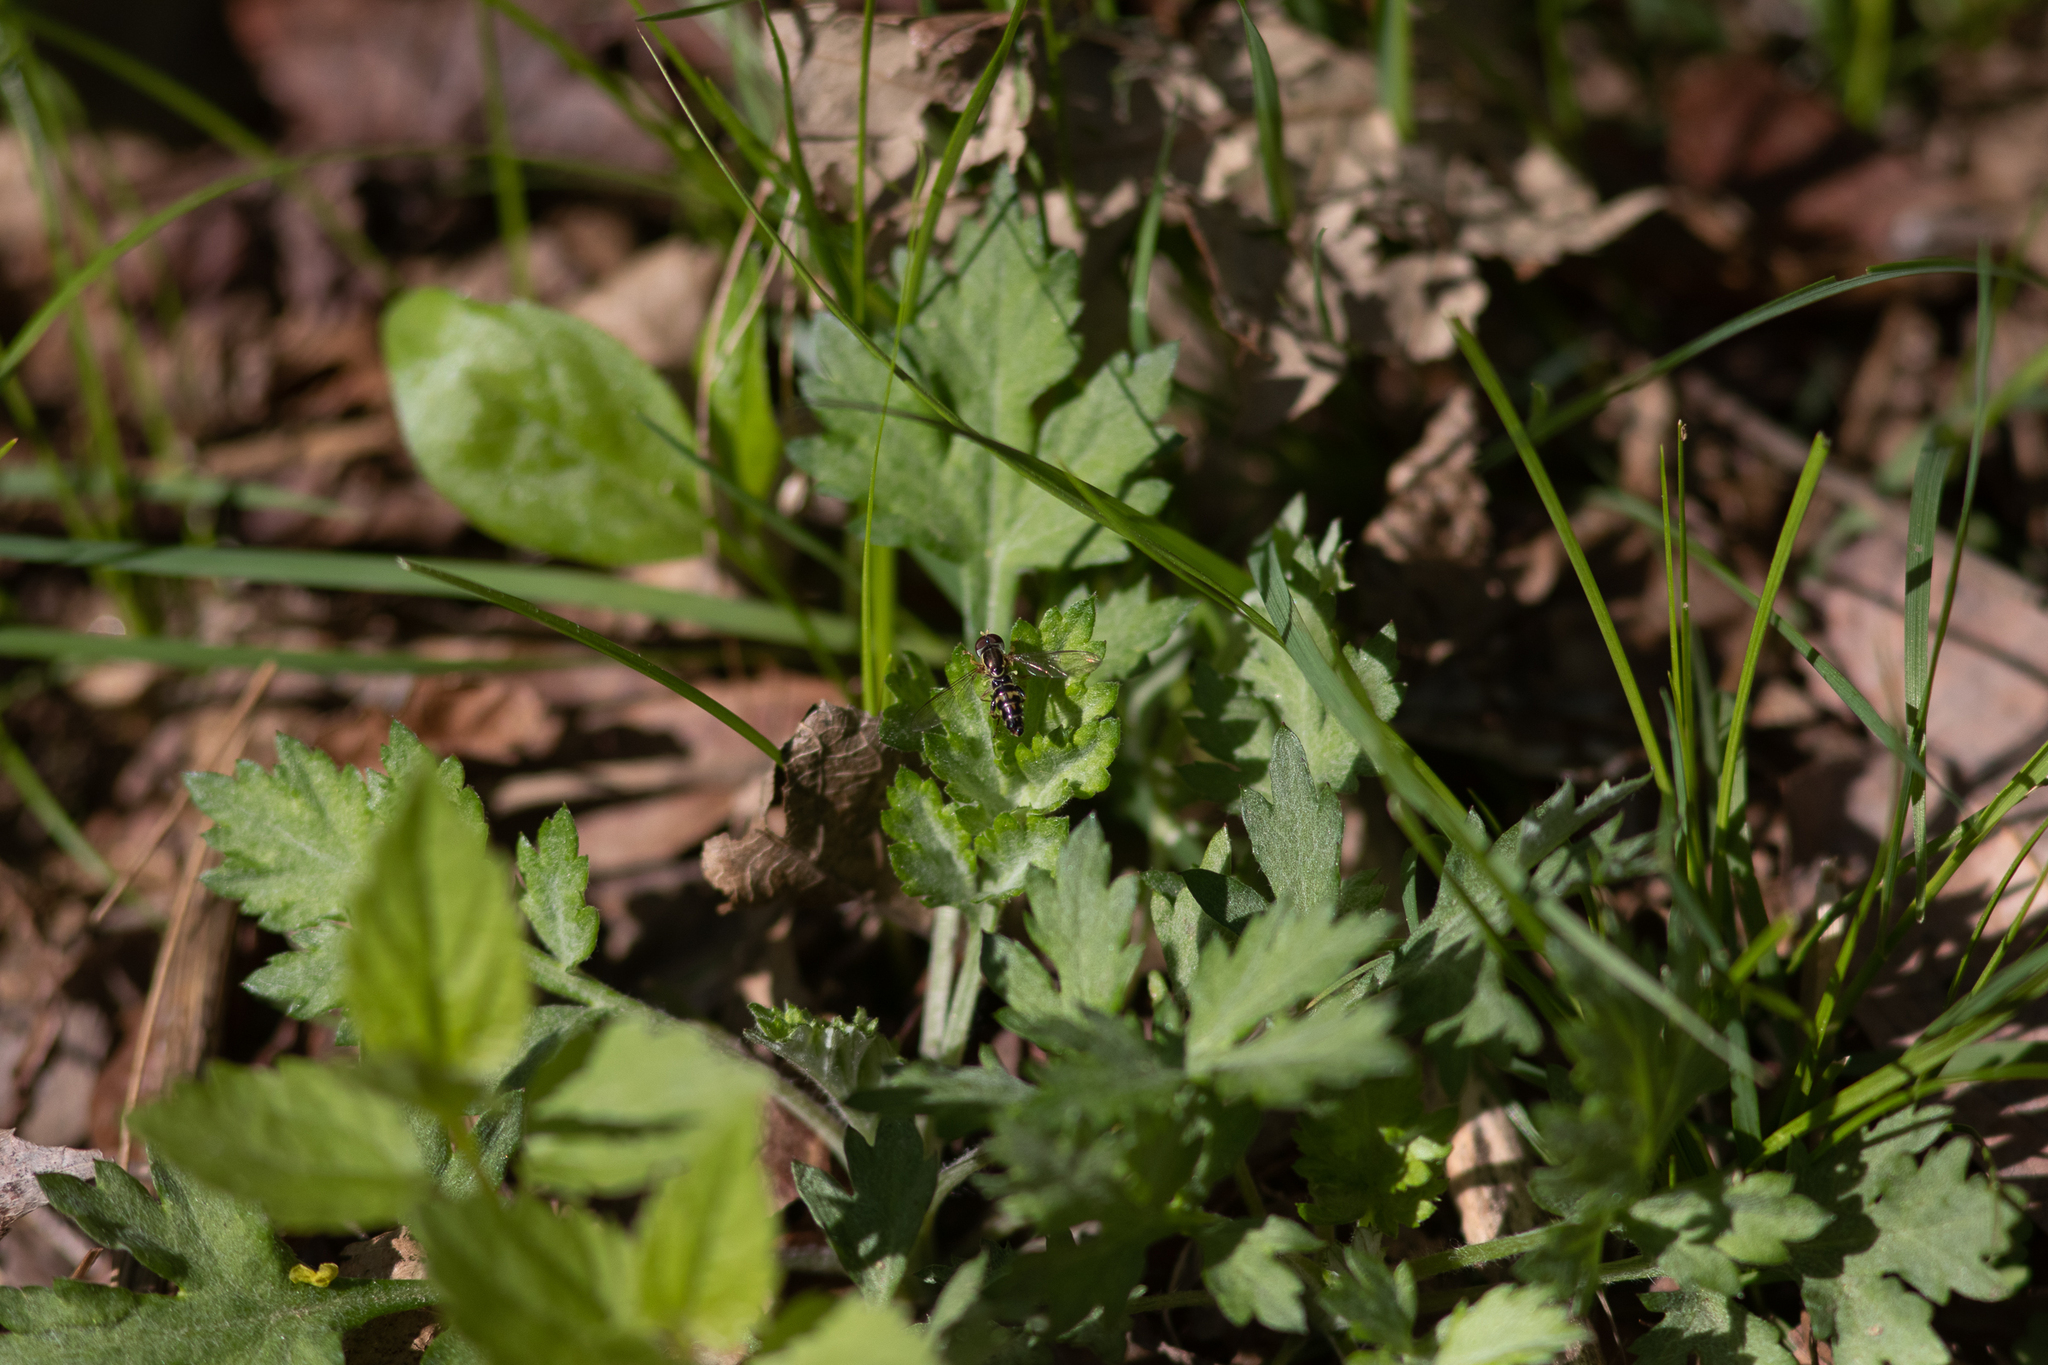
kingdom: Animalia
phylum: Arthropoda
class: Insecta
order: Diptera
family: Syrphidae
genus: Toxomerus
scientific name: Toxomerus geminatus
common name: Eastern calligrapher
